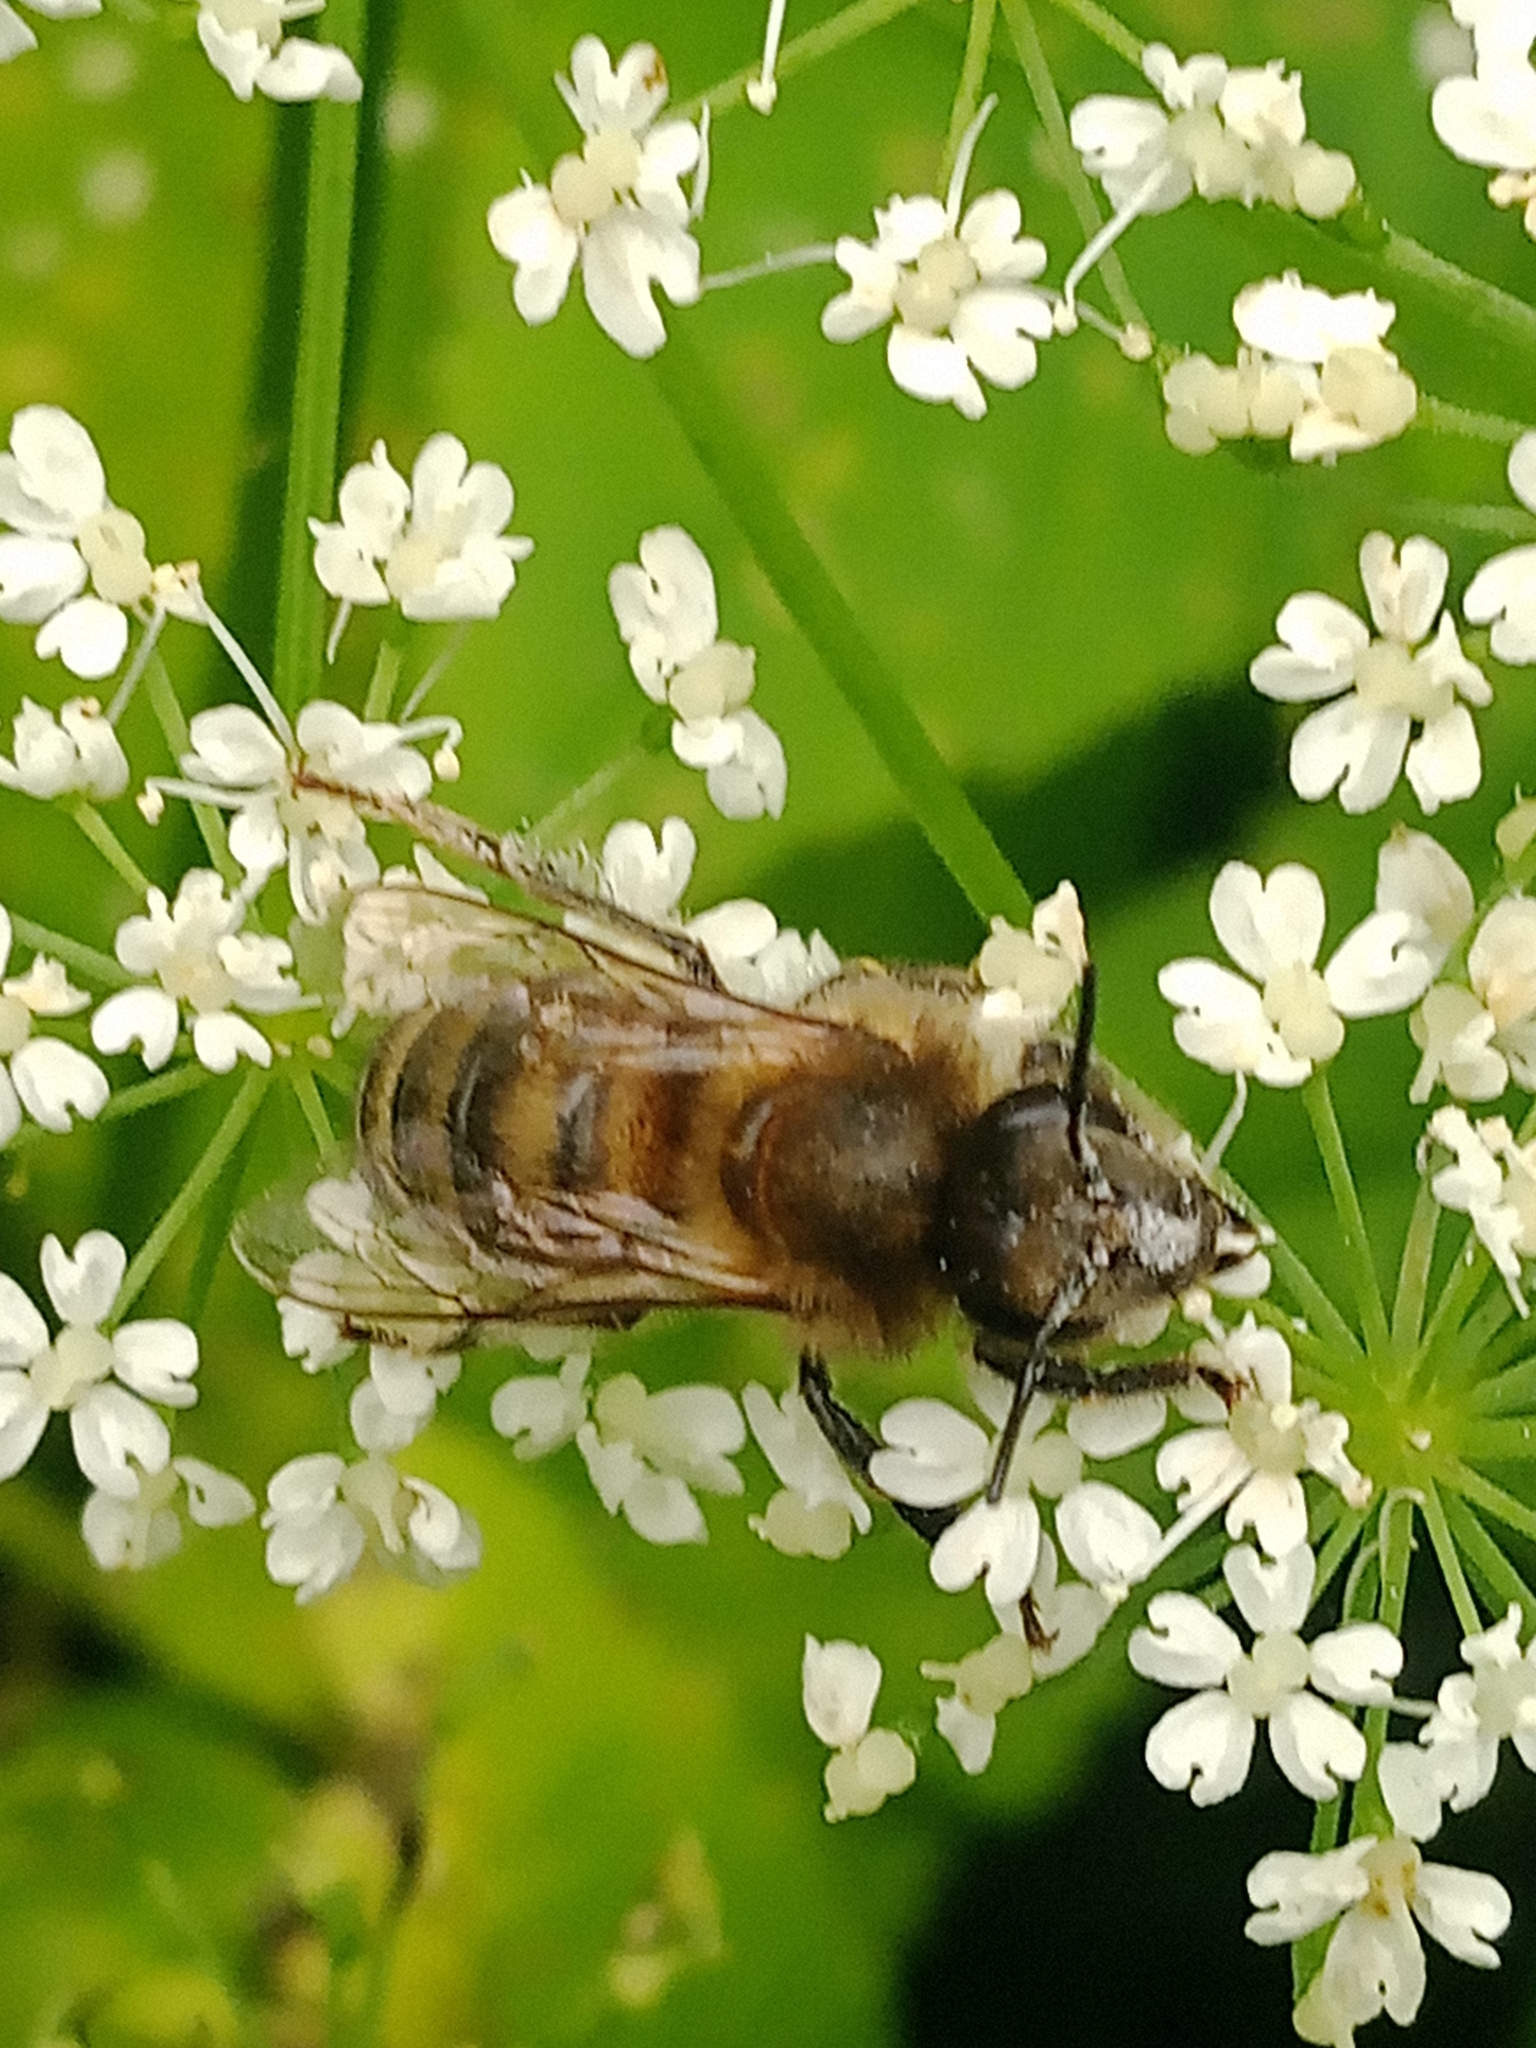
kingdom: Animalia
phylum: Arthropoda
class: Insecta
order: Hymenoptera
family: Apidae
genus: Apis
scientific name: Apis mellifera
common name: Honey bee
